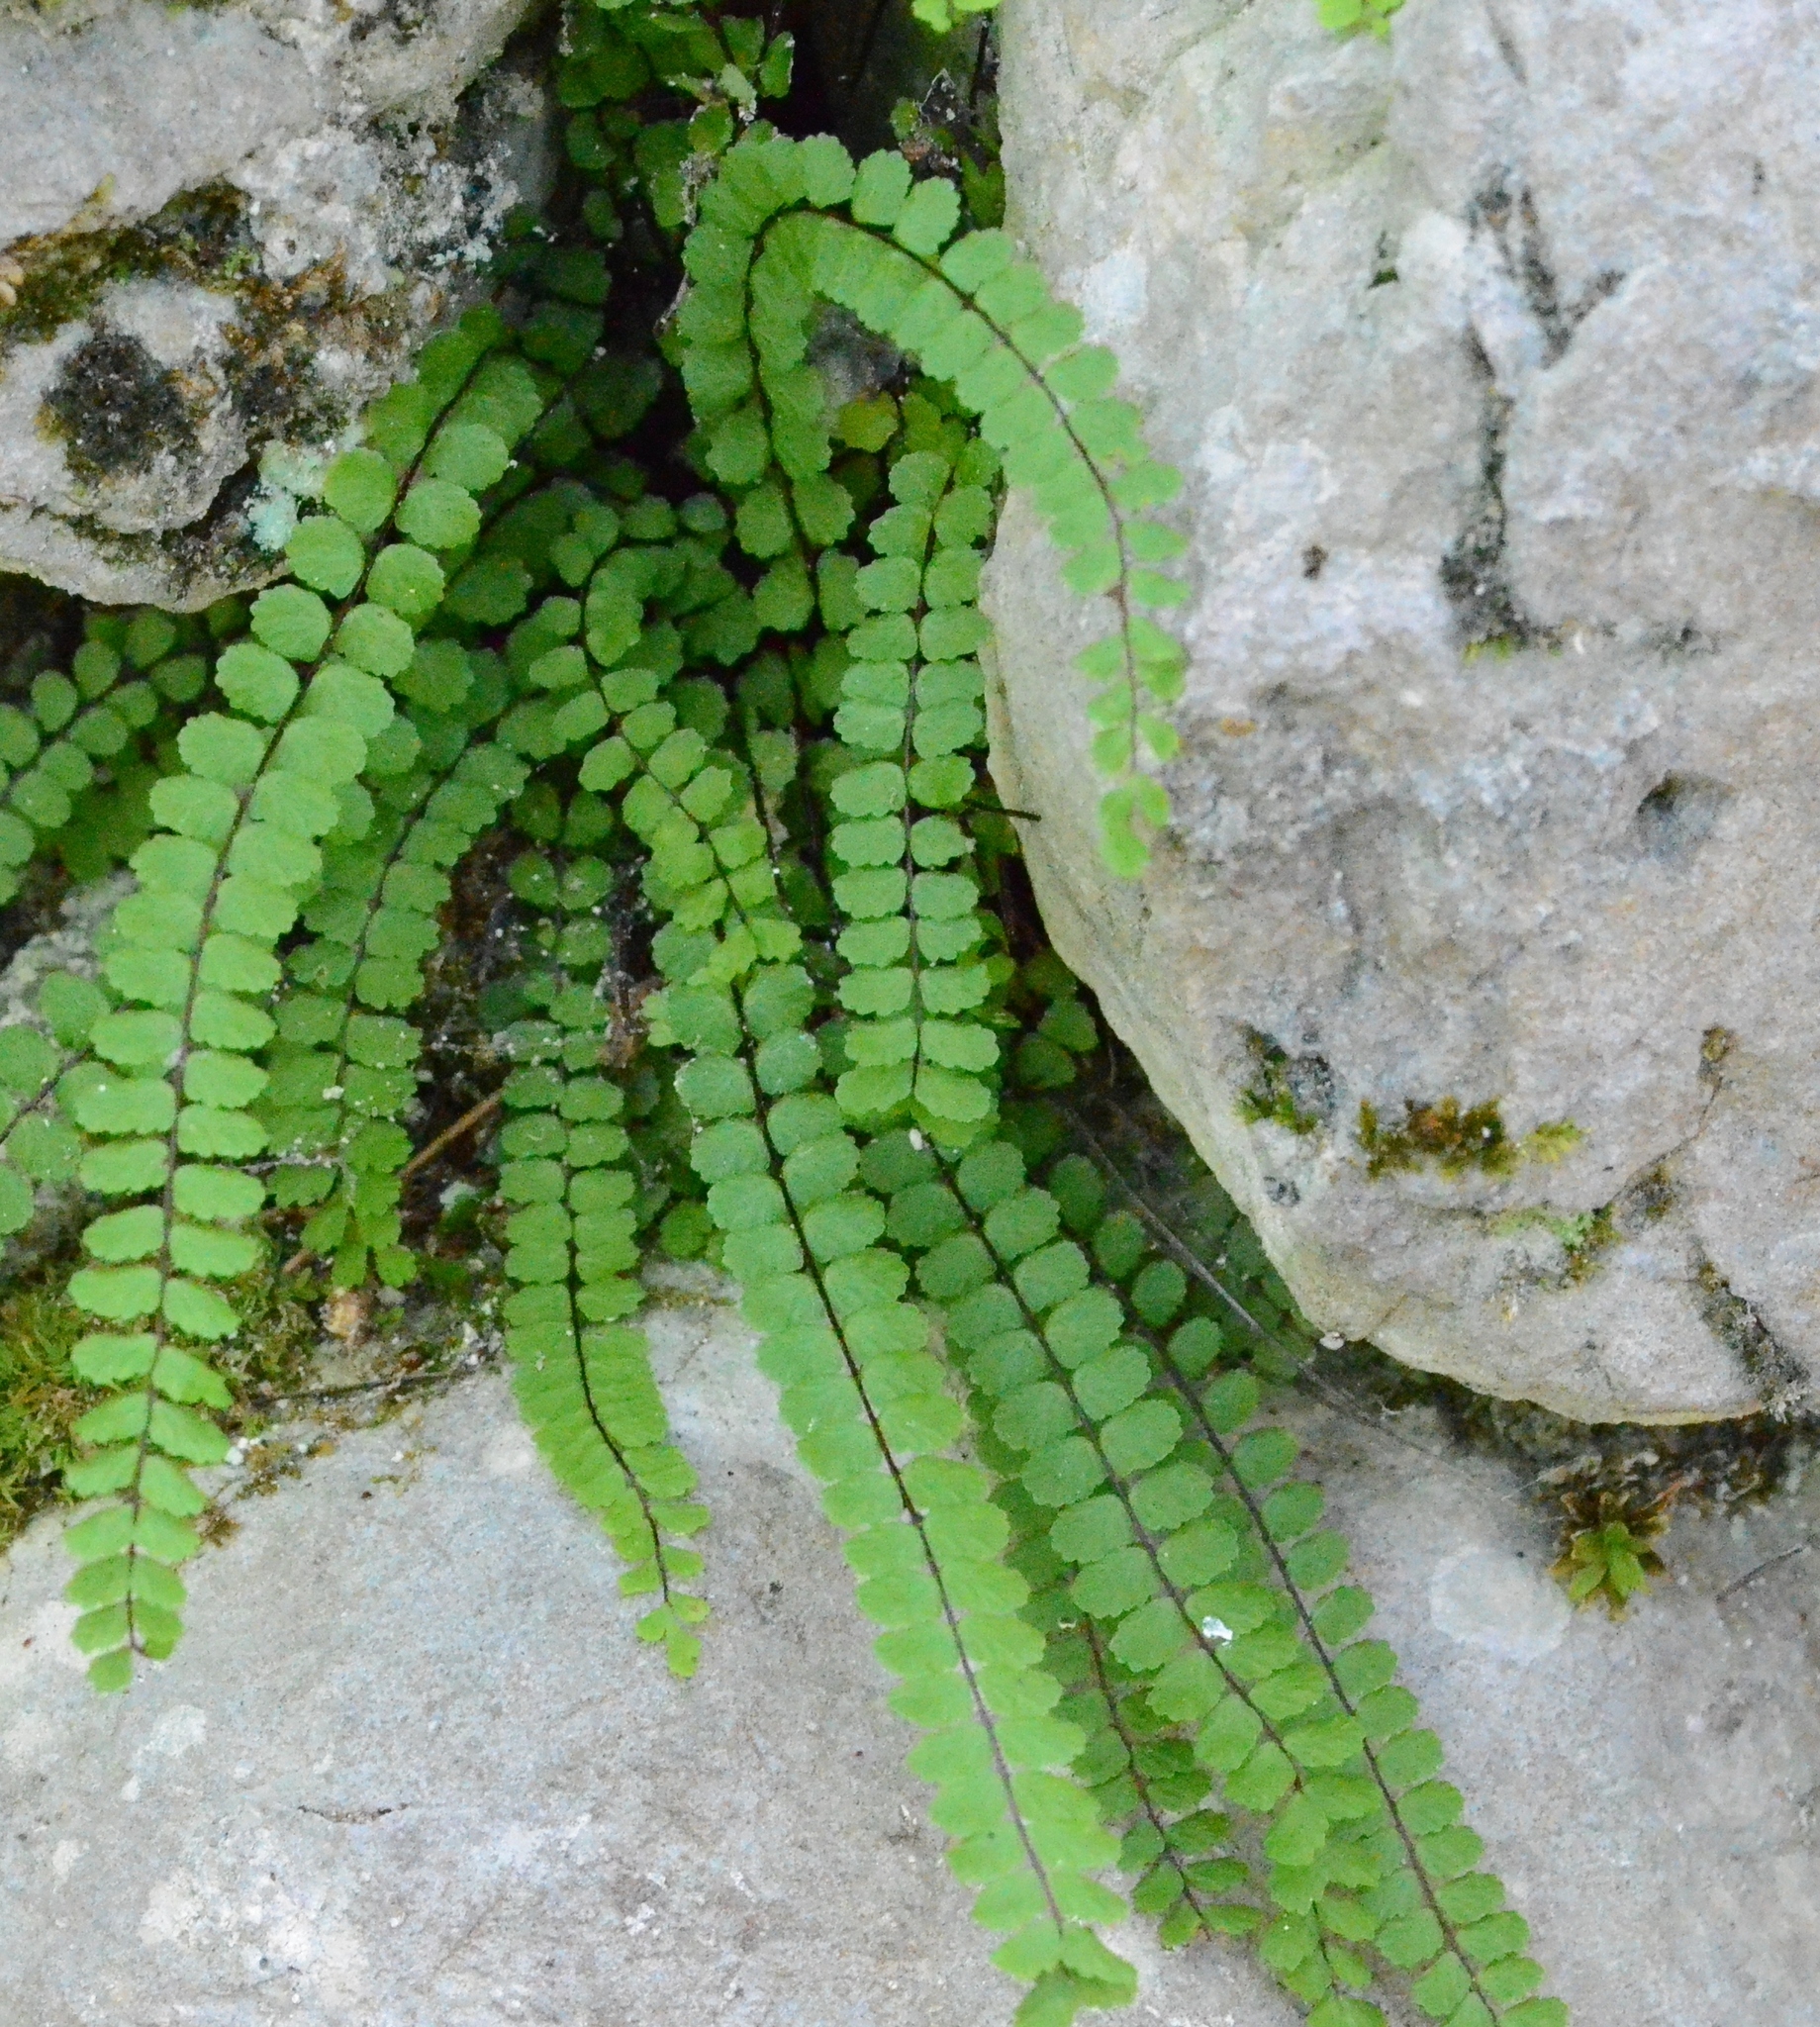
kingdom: Plantae
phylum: Tracheophyta
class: Polypodiopsida
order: Polypodiales
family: Aspleniaceae
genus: Asplenium
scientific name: Asplenium trichomanes
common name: Maidenhair spleenwort
